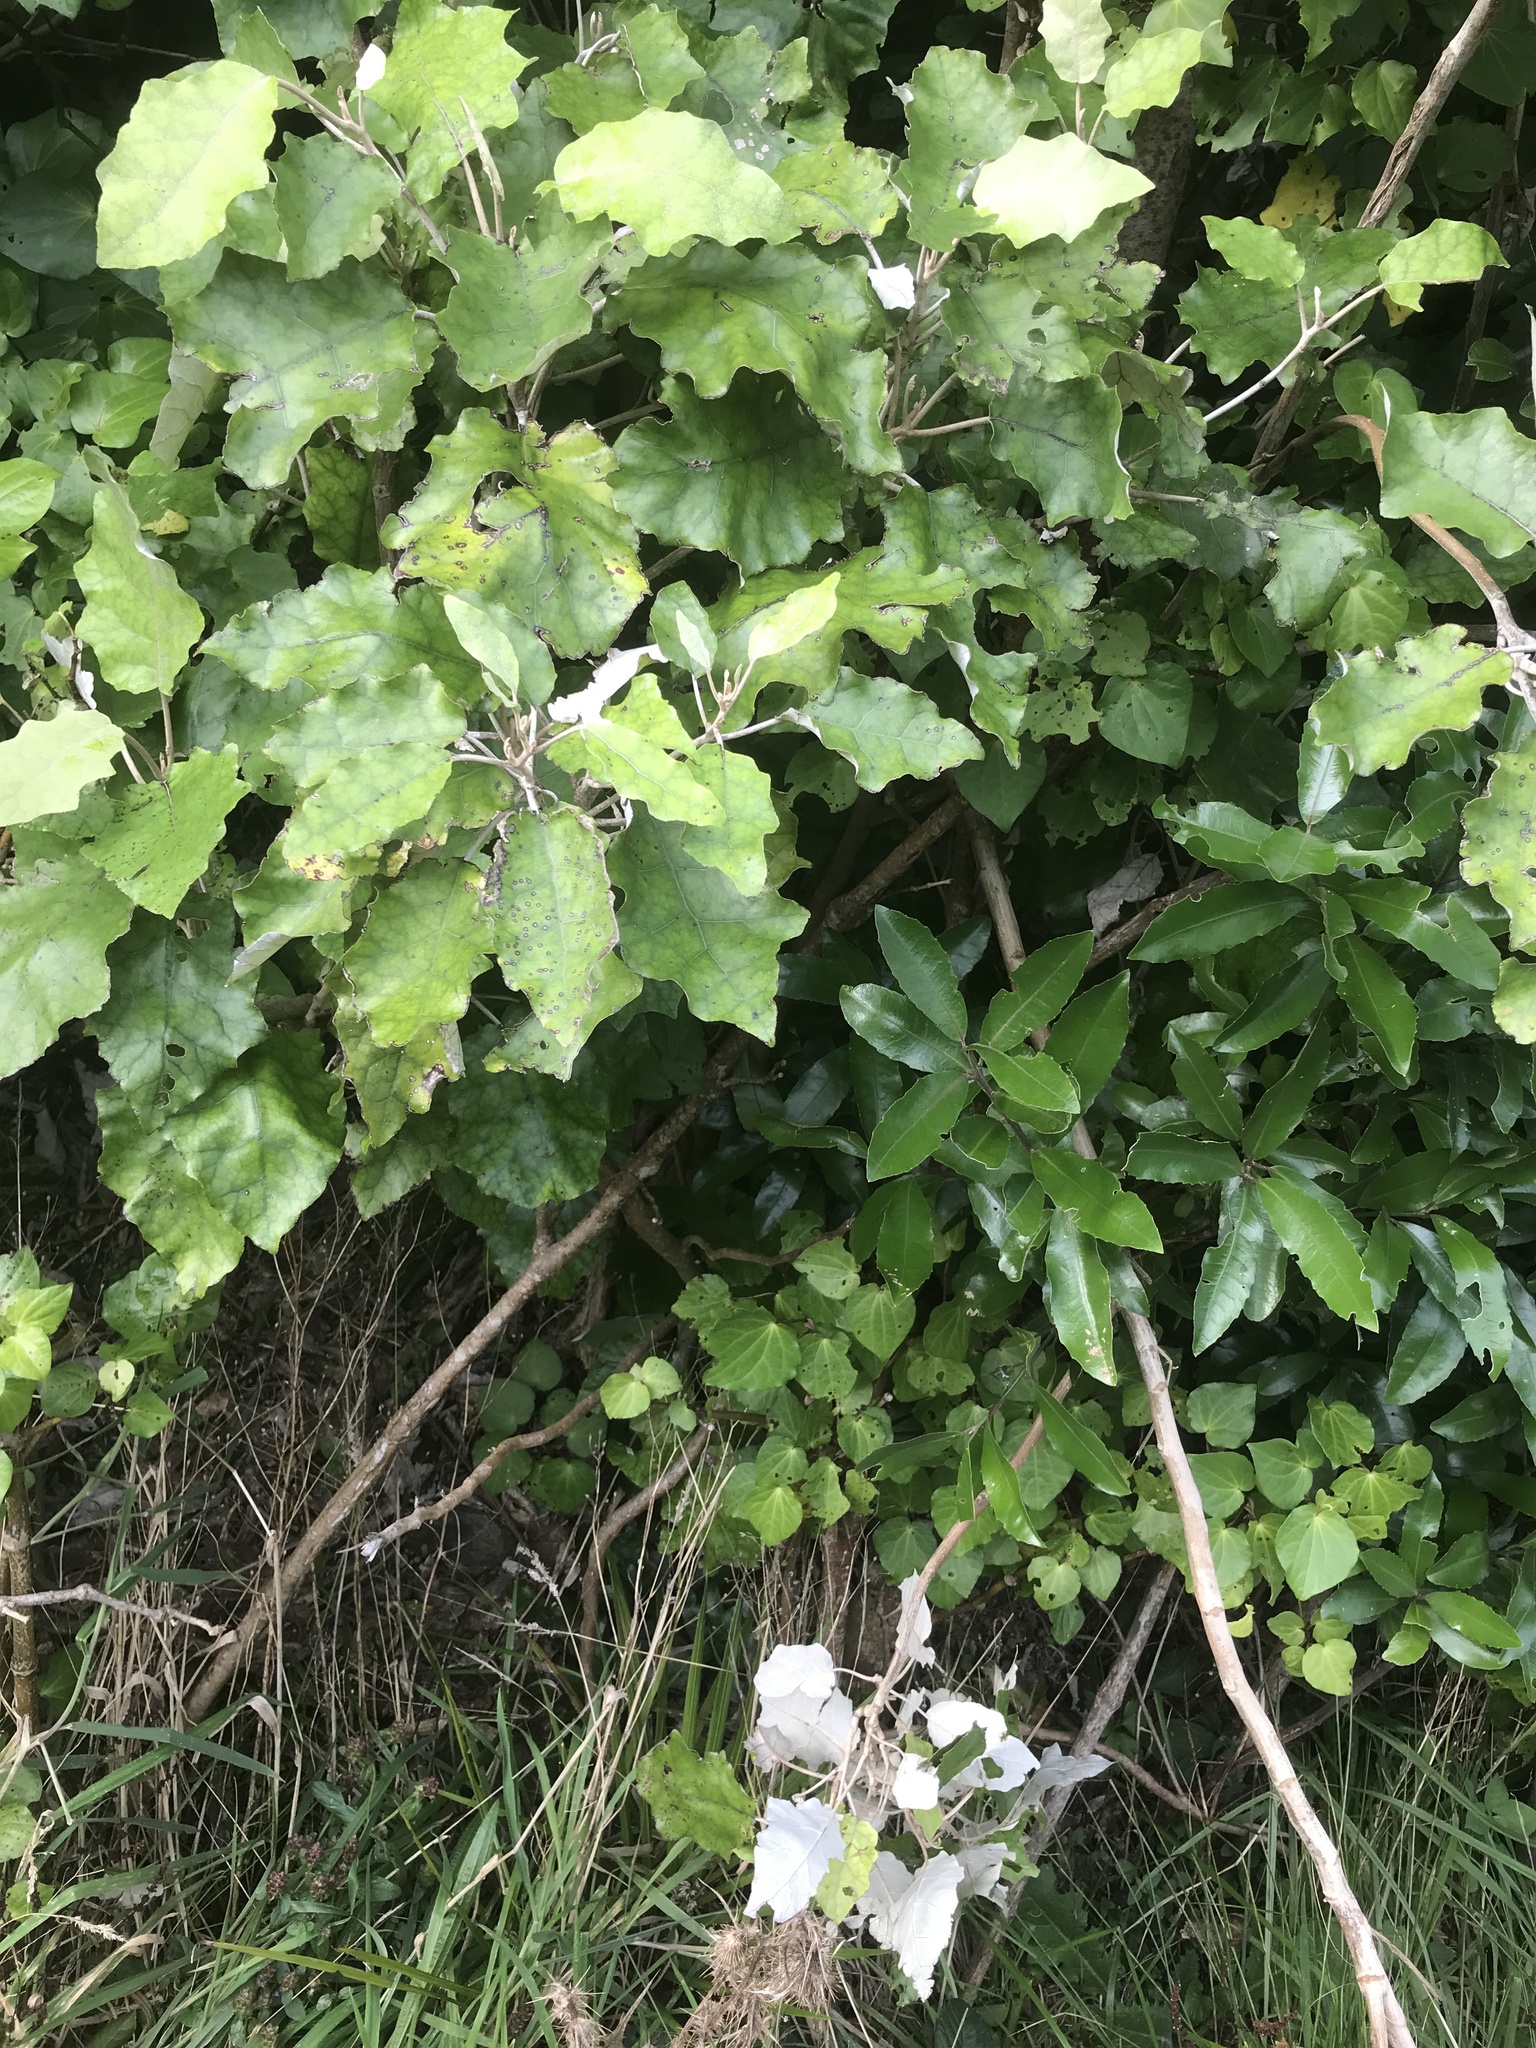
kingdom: Plantae
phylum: Tracheophyta
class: Magnoliopsida
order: Asterales
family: Asteraceae
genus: Brachyglottis
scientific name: Brachyglottis repanda
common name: Hedge ragwort
